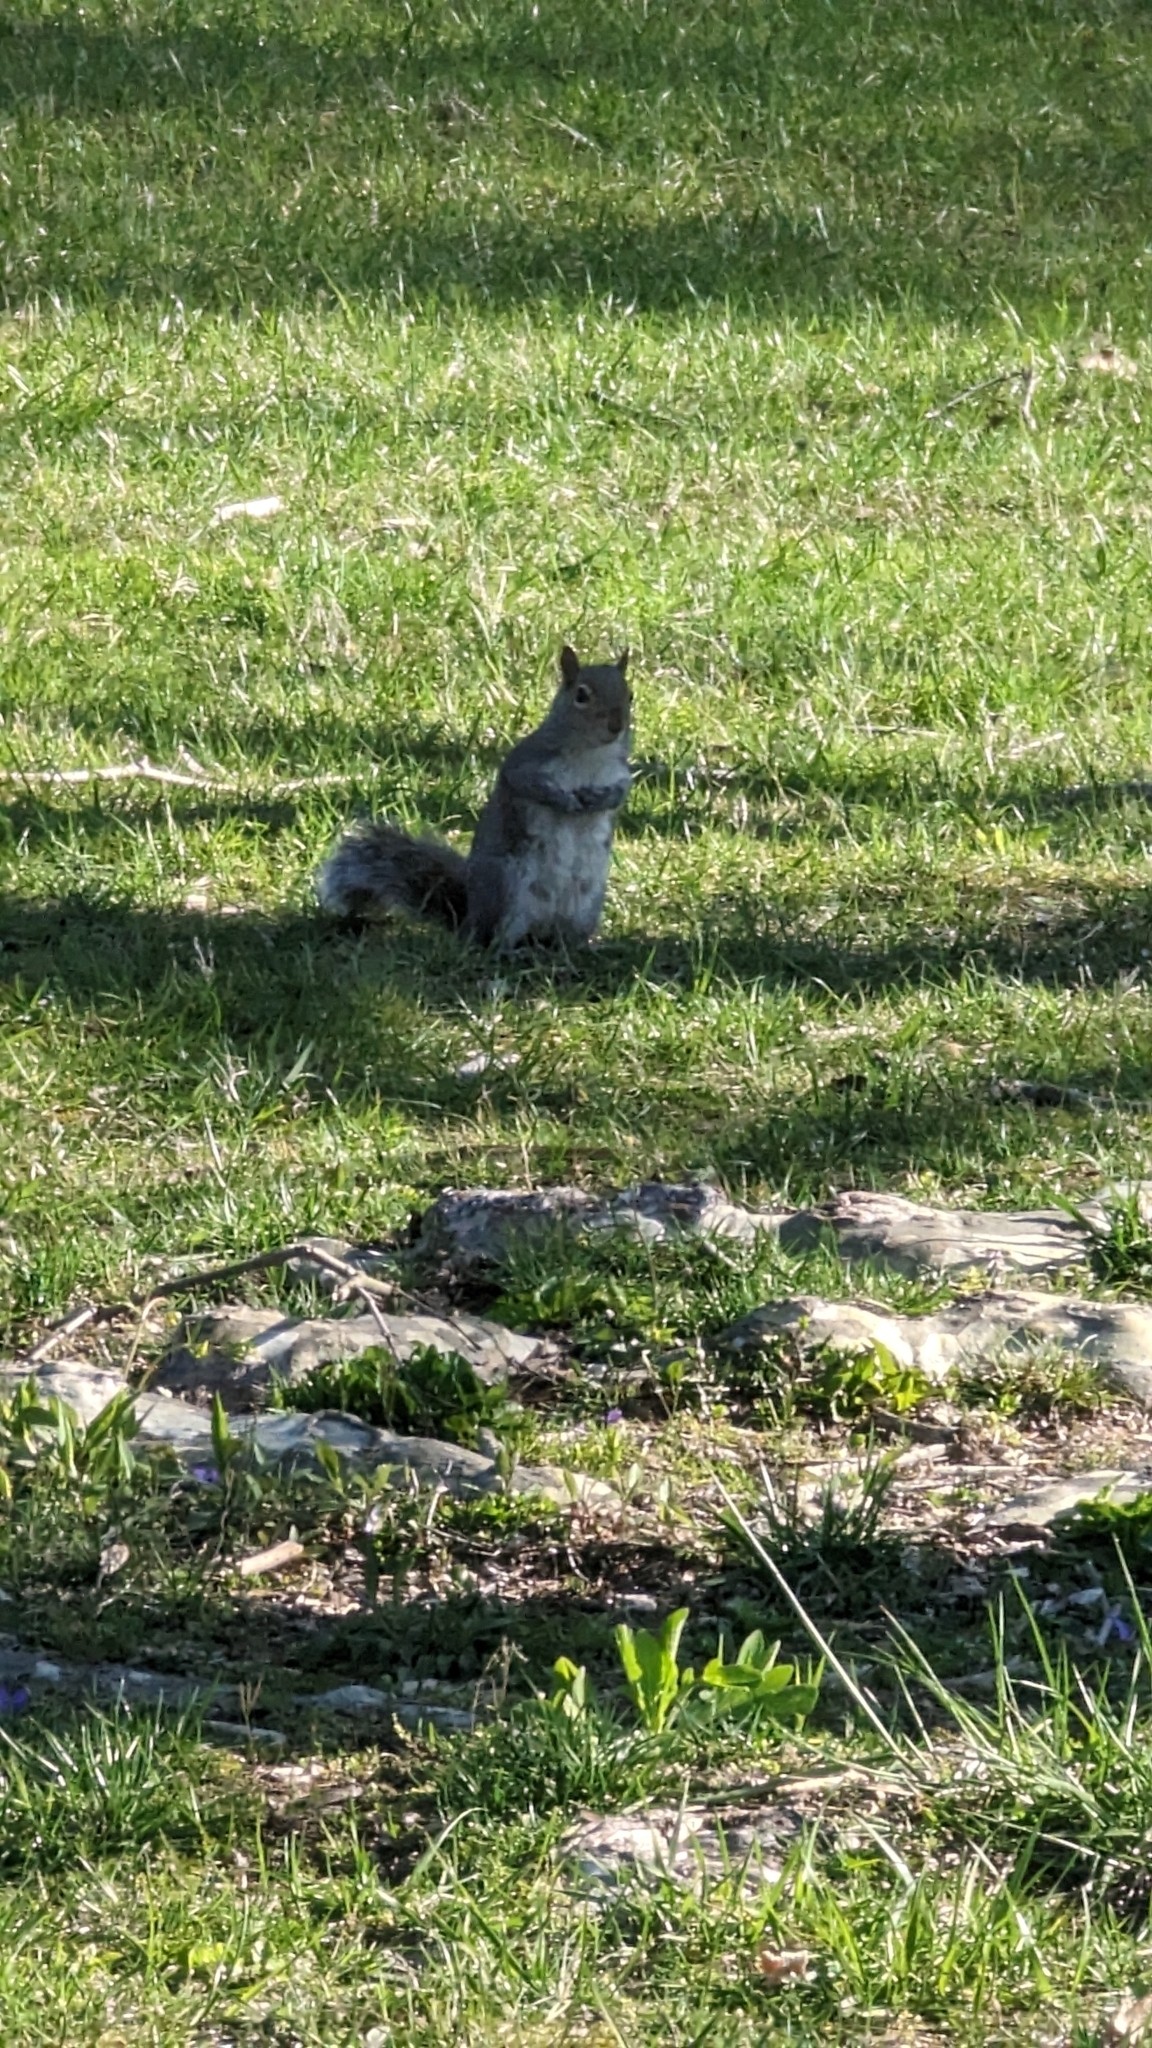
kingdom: Animalia
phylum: Chordata
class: Mammalia
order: Rodentia
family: Sciuridae
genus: Sciurus
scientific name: Sciurus carolinensis
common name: Eastern gray squirrel
